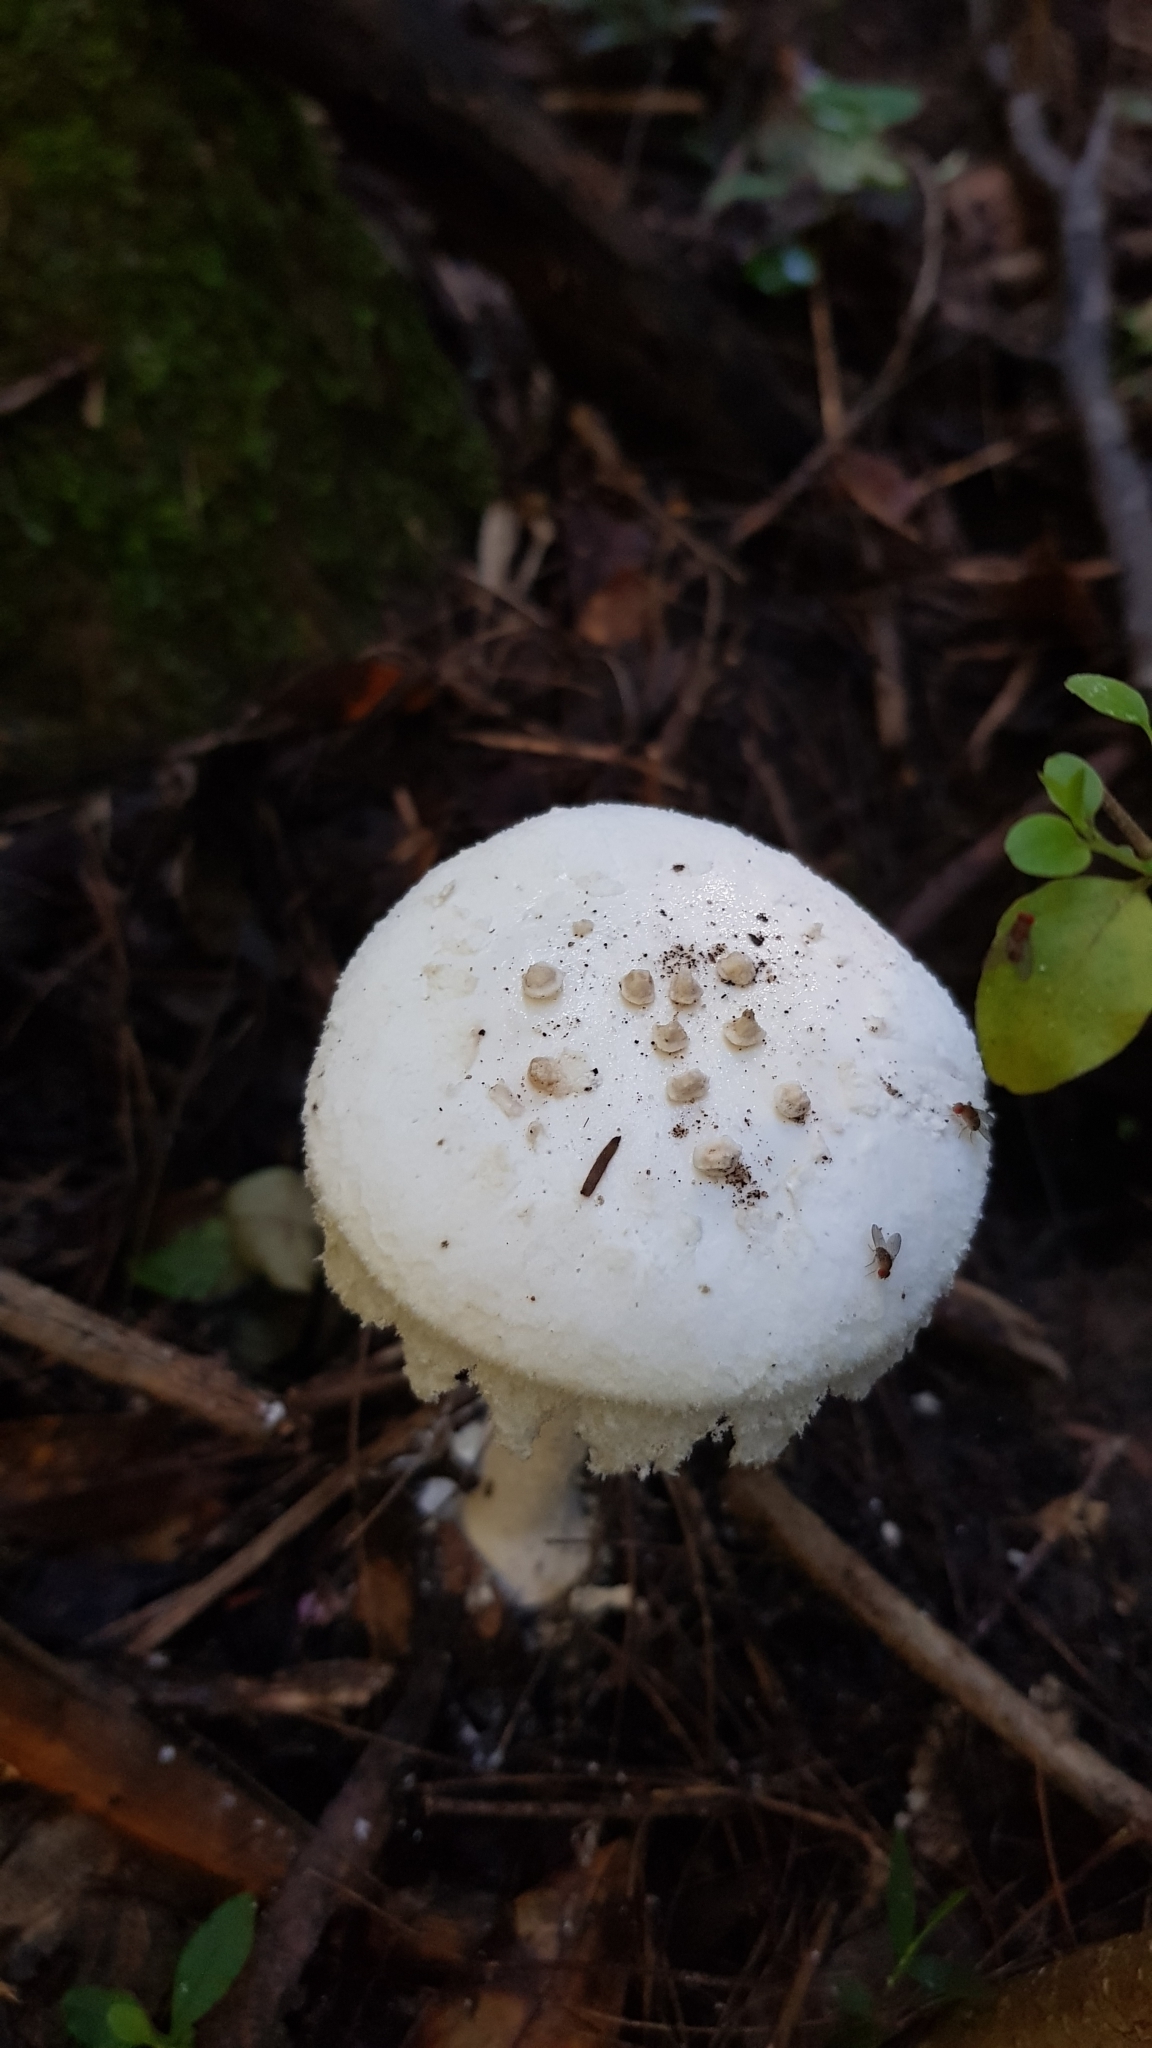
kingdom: Fungi
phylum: Basidiomycota
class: Agaricomycetes
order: Agaricales
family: Amanitaceae
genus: Amanita
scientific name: Amanita farinacea
